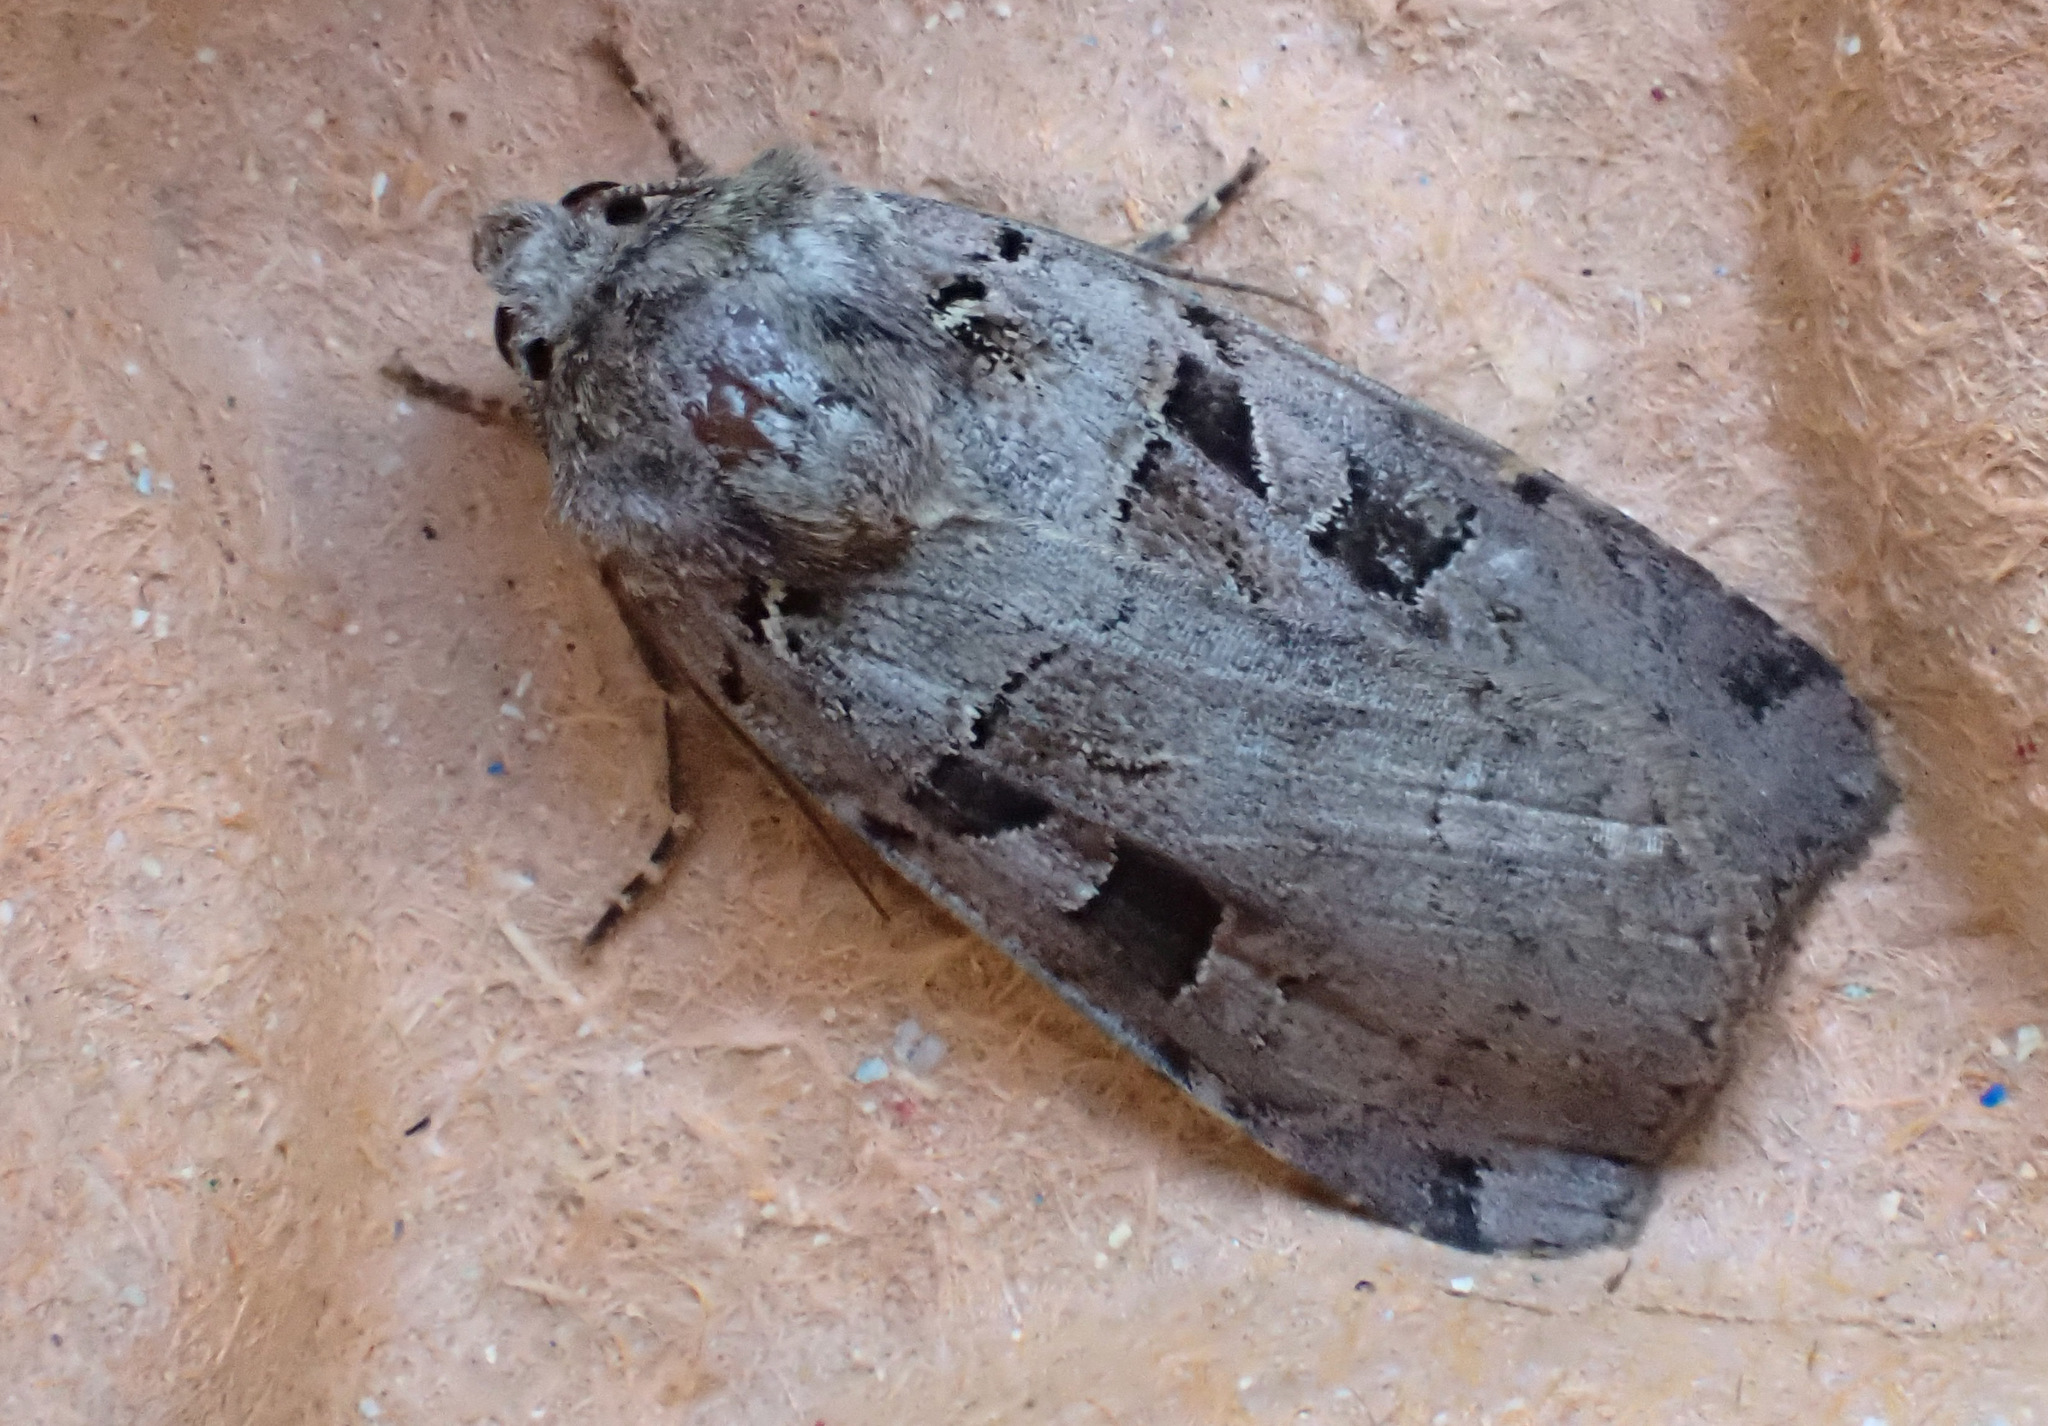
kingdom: Animalia
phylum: Arthropoda
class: Insecta
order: Lepidoptera
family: Noctuidae
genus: Xestia
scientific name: Xestia triangulum
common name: Double square-spot
